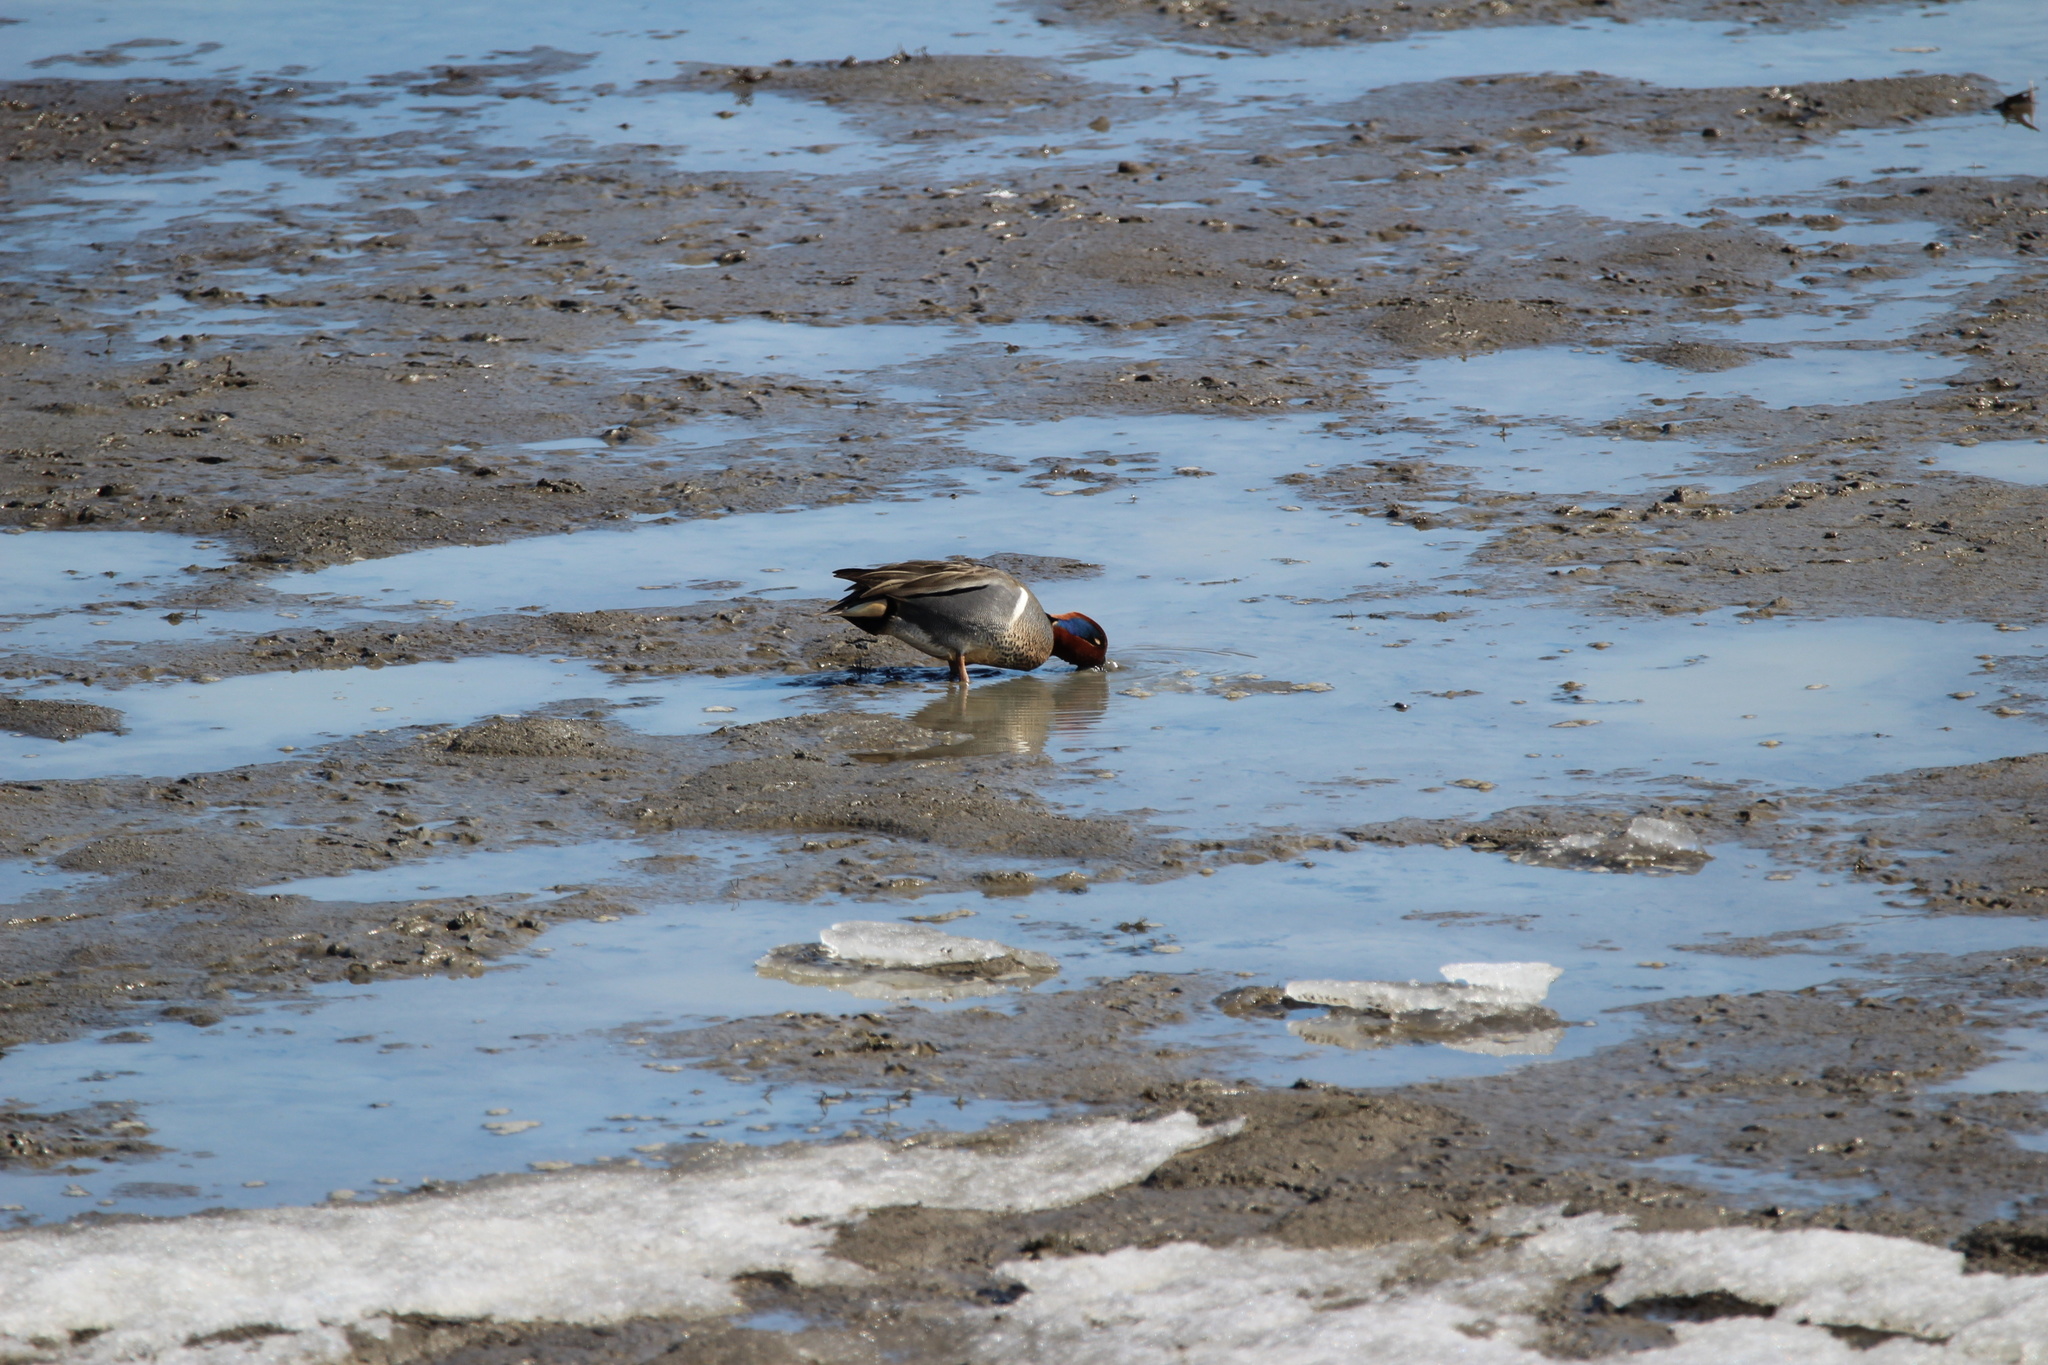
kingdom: Animalia
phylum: Chordata
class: Aves
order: Anseriformes
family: Anatidae
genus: Anas
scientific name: Anas crecca
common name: Eurasian teal
